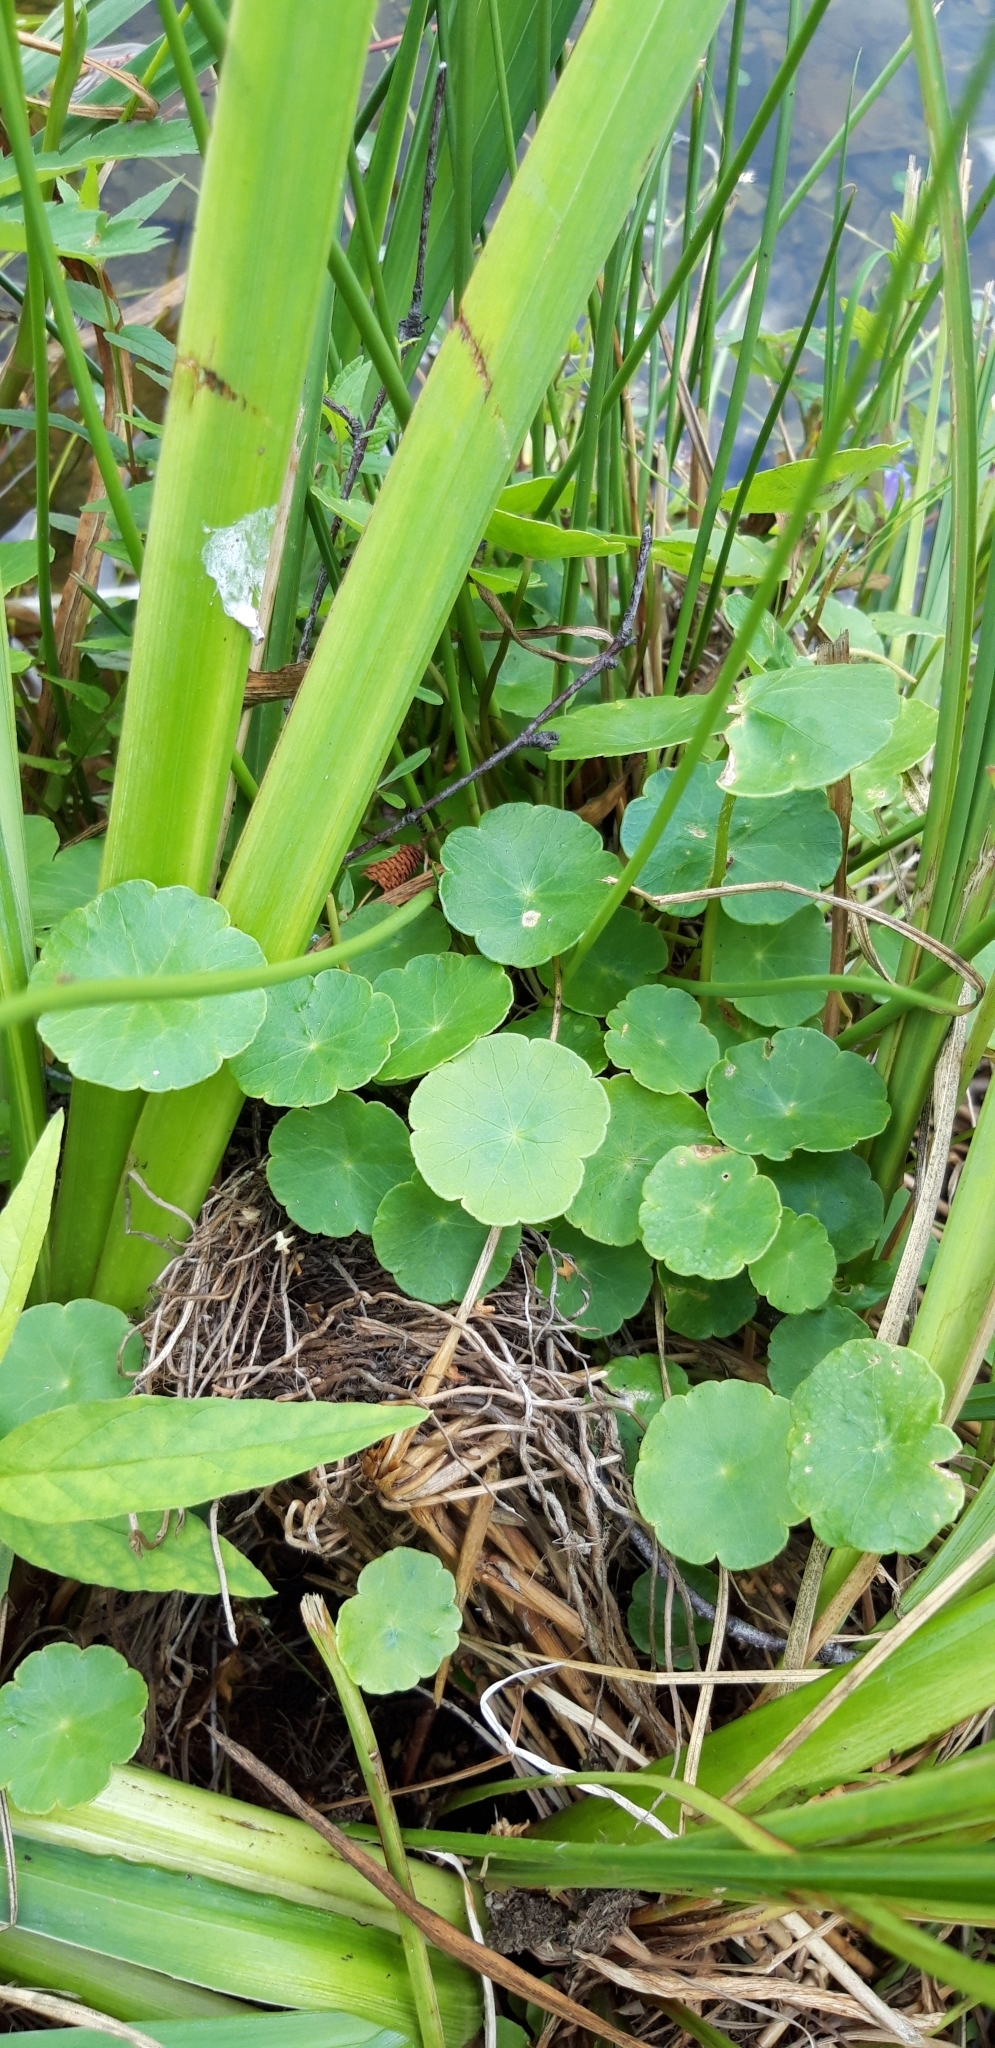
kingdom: Plantae
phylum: Tracheophyta
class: Magnoliopsida
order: Apiales
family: Araliaceae
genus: Hydrocotyle
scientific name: Hydrocotyle vulgaris
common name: Marsh pennywort
